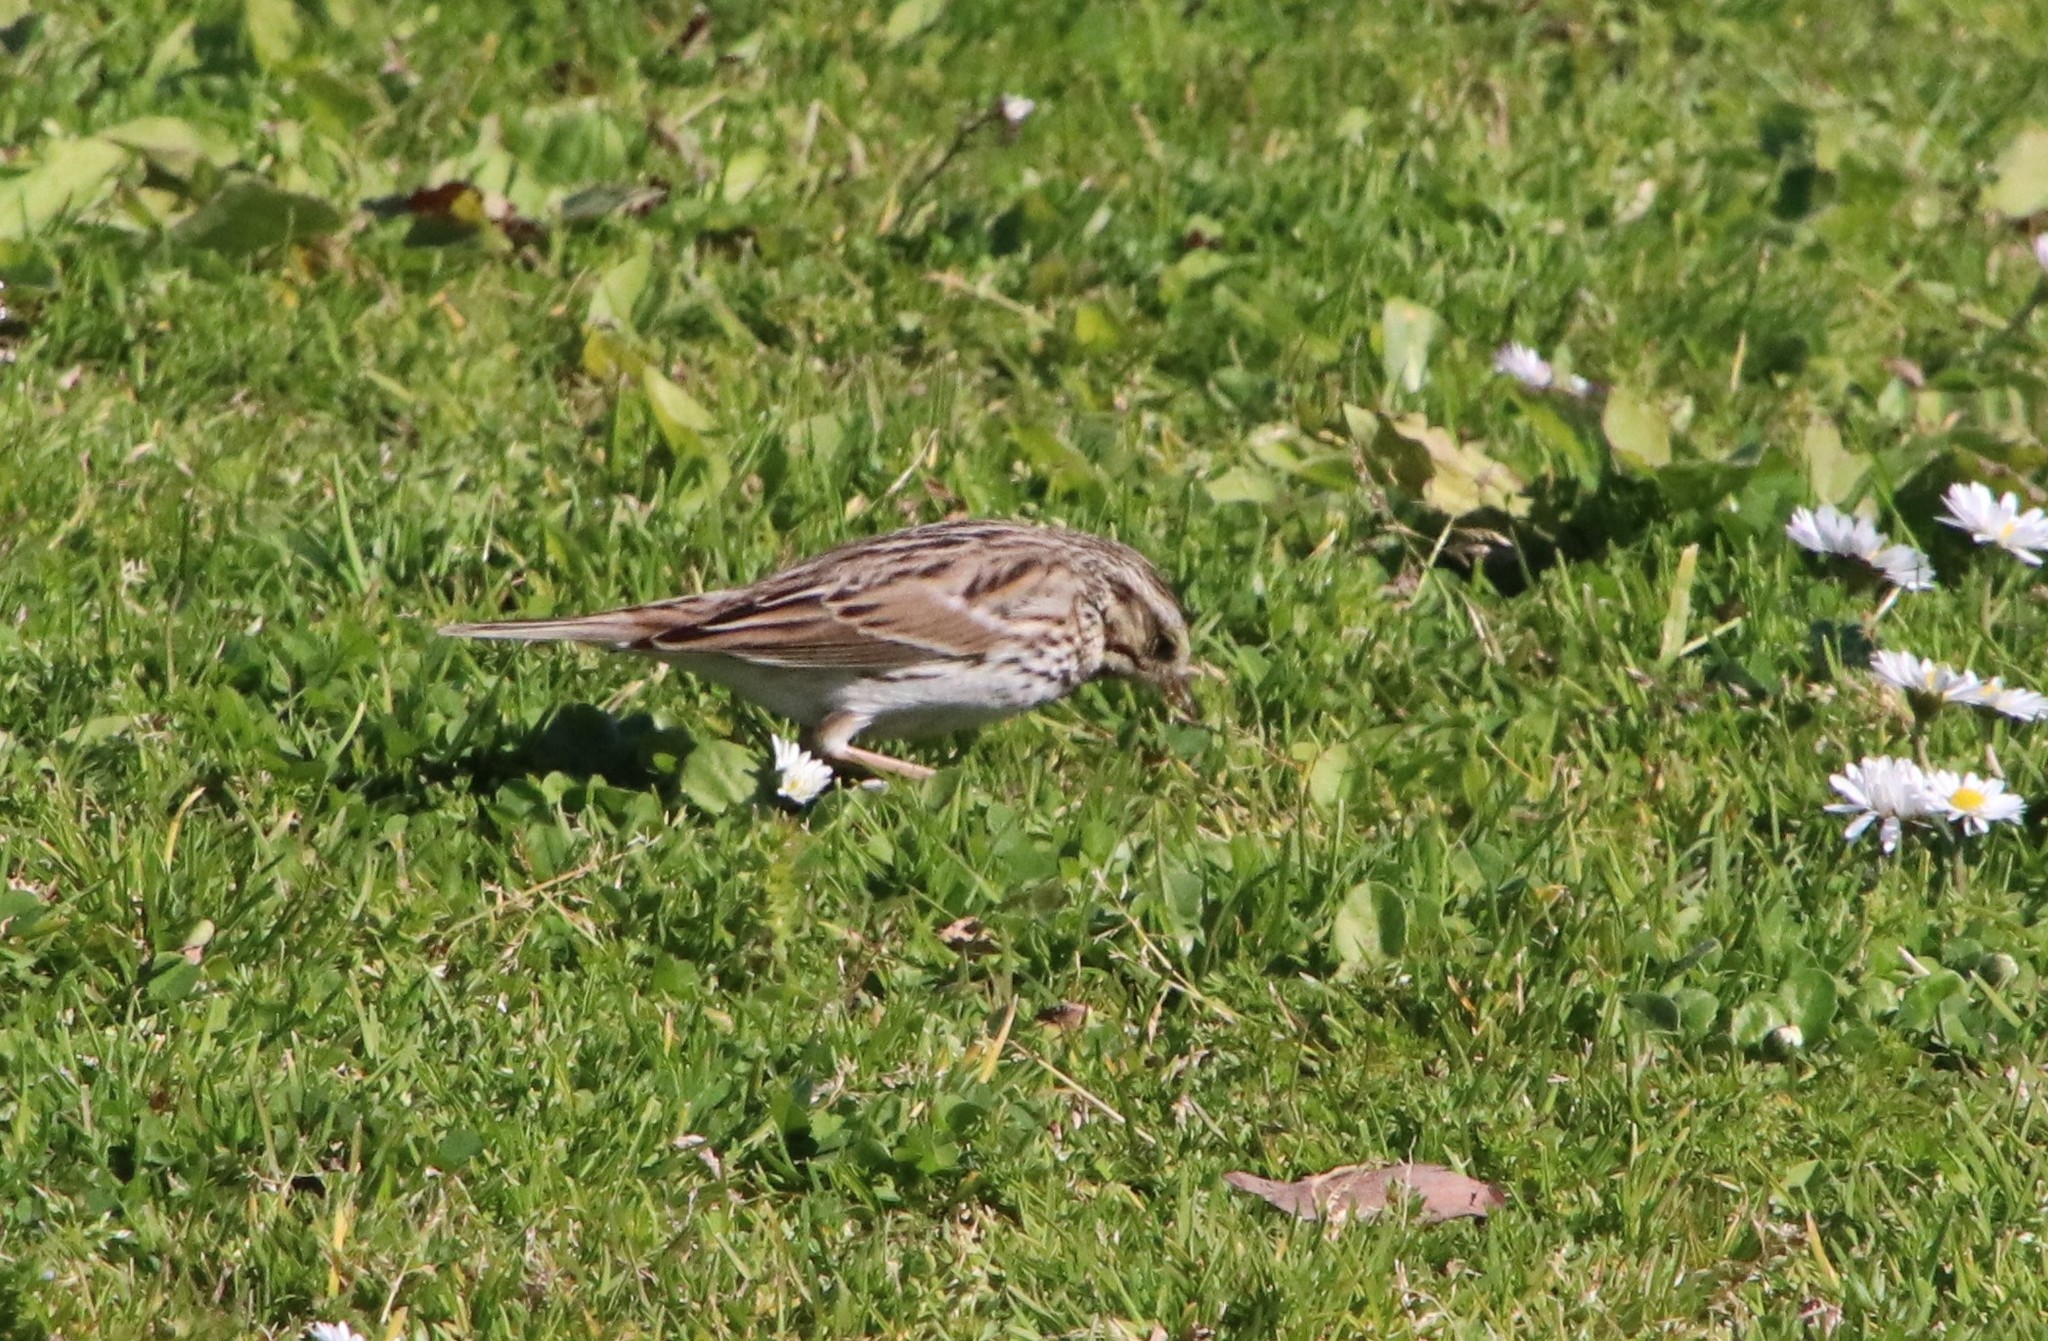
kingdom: Animalia
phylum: Chordata
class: Aves
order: Passeriformes
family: Passerellidae
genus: Passerculus
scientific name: Passerculus sandwichensis
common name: Savannah sparrow
